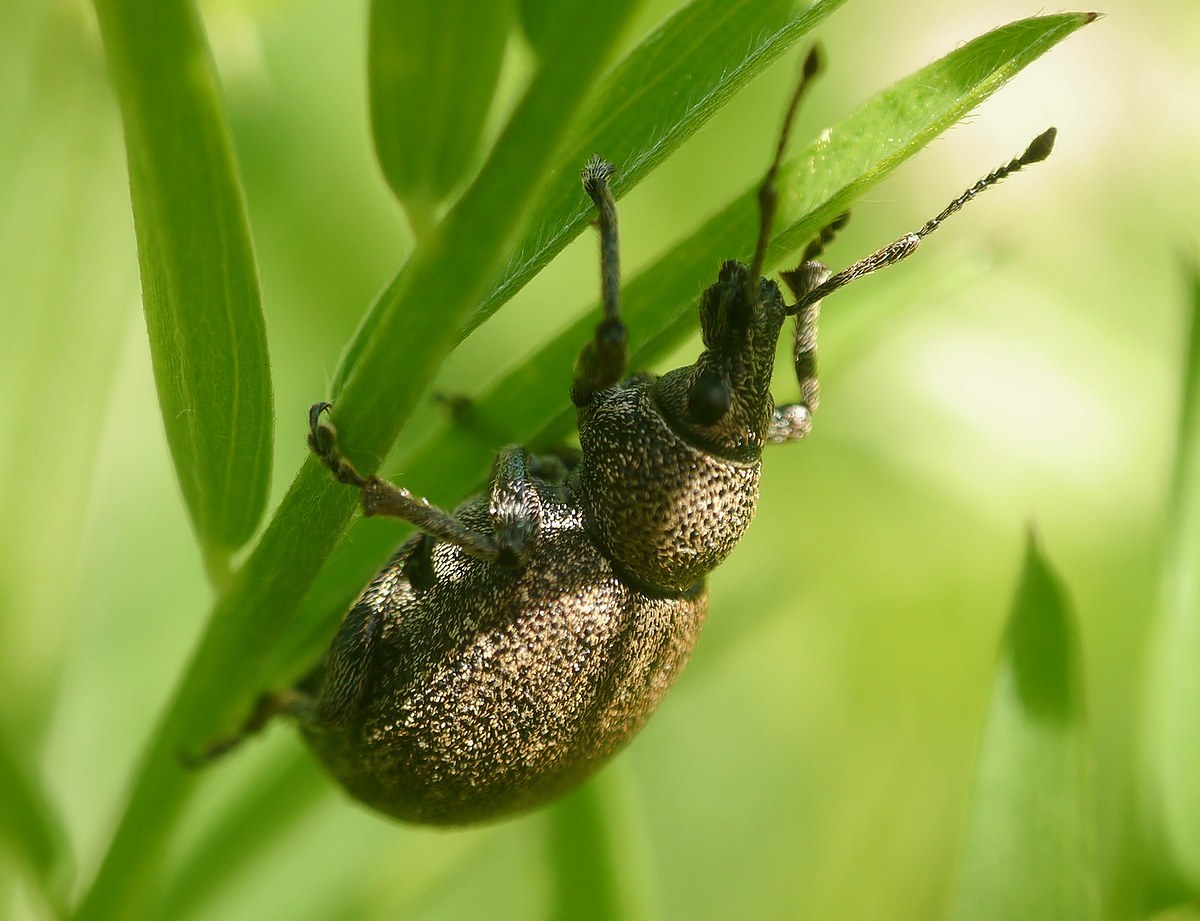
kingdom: Animalia
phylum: Arthropoda
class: Insecta
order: Coleoptera
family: Curculionidae
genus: Otiorhynchus
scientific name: Otiorhynchus ligustici
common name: Weevil
